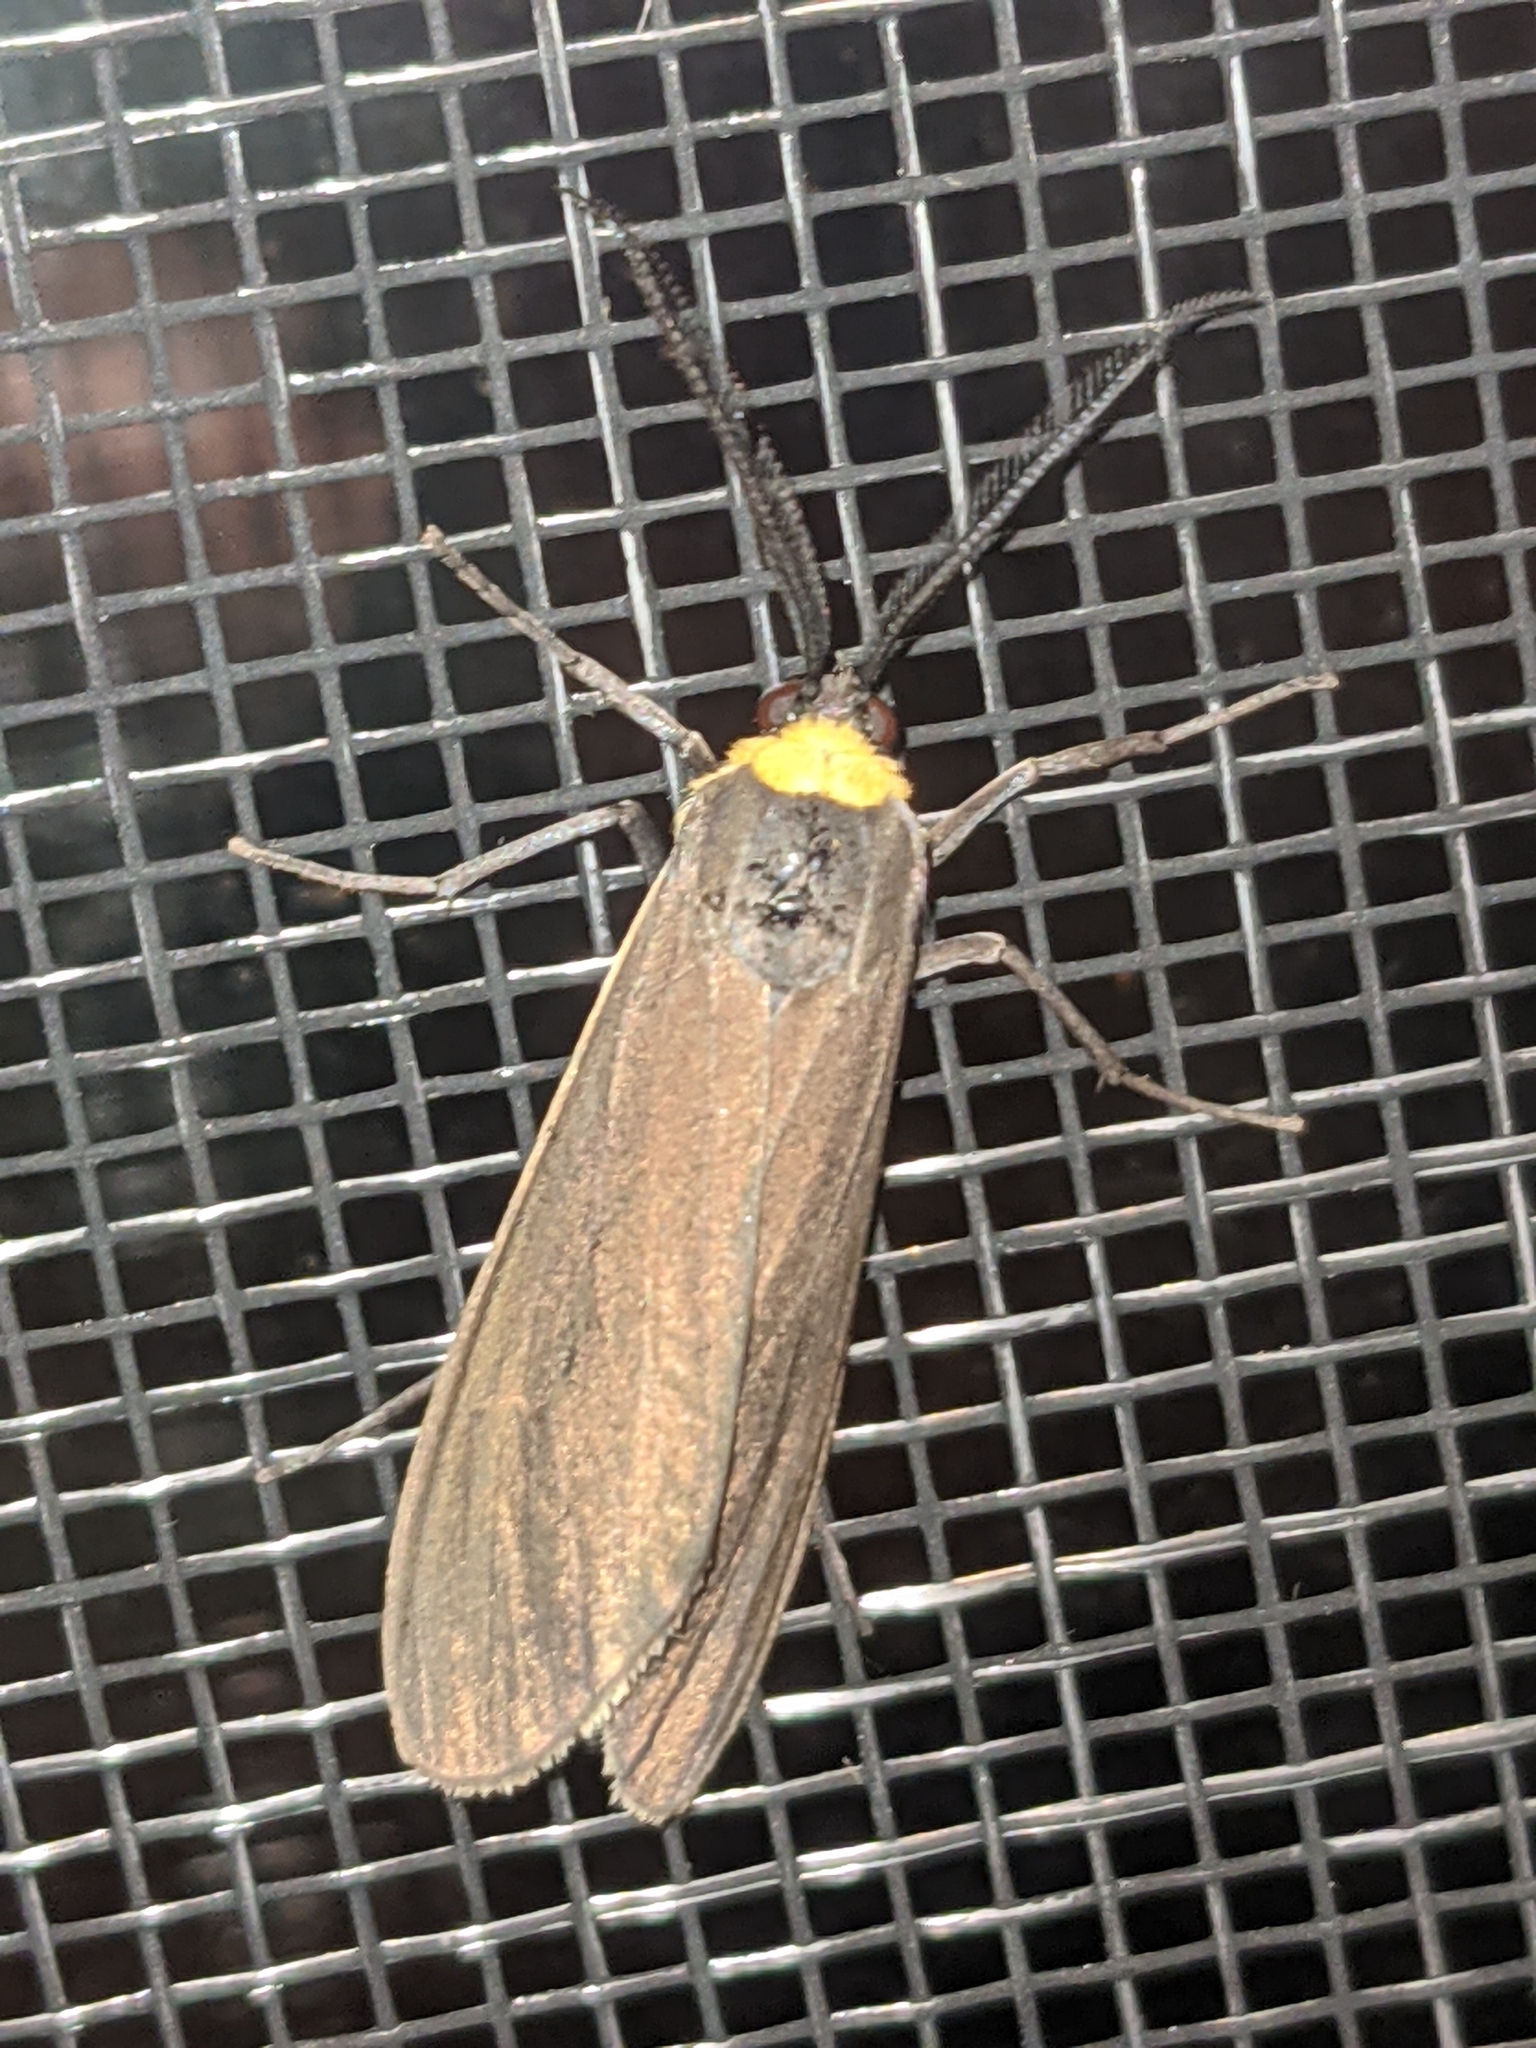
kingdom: Animalia
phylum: Arthropoda
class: Insecta
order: Lepidoptera
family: Erebidae
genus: Cisseps
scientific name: Cisseps fulvicollis
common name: Yellow-collared scape moth
